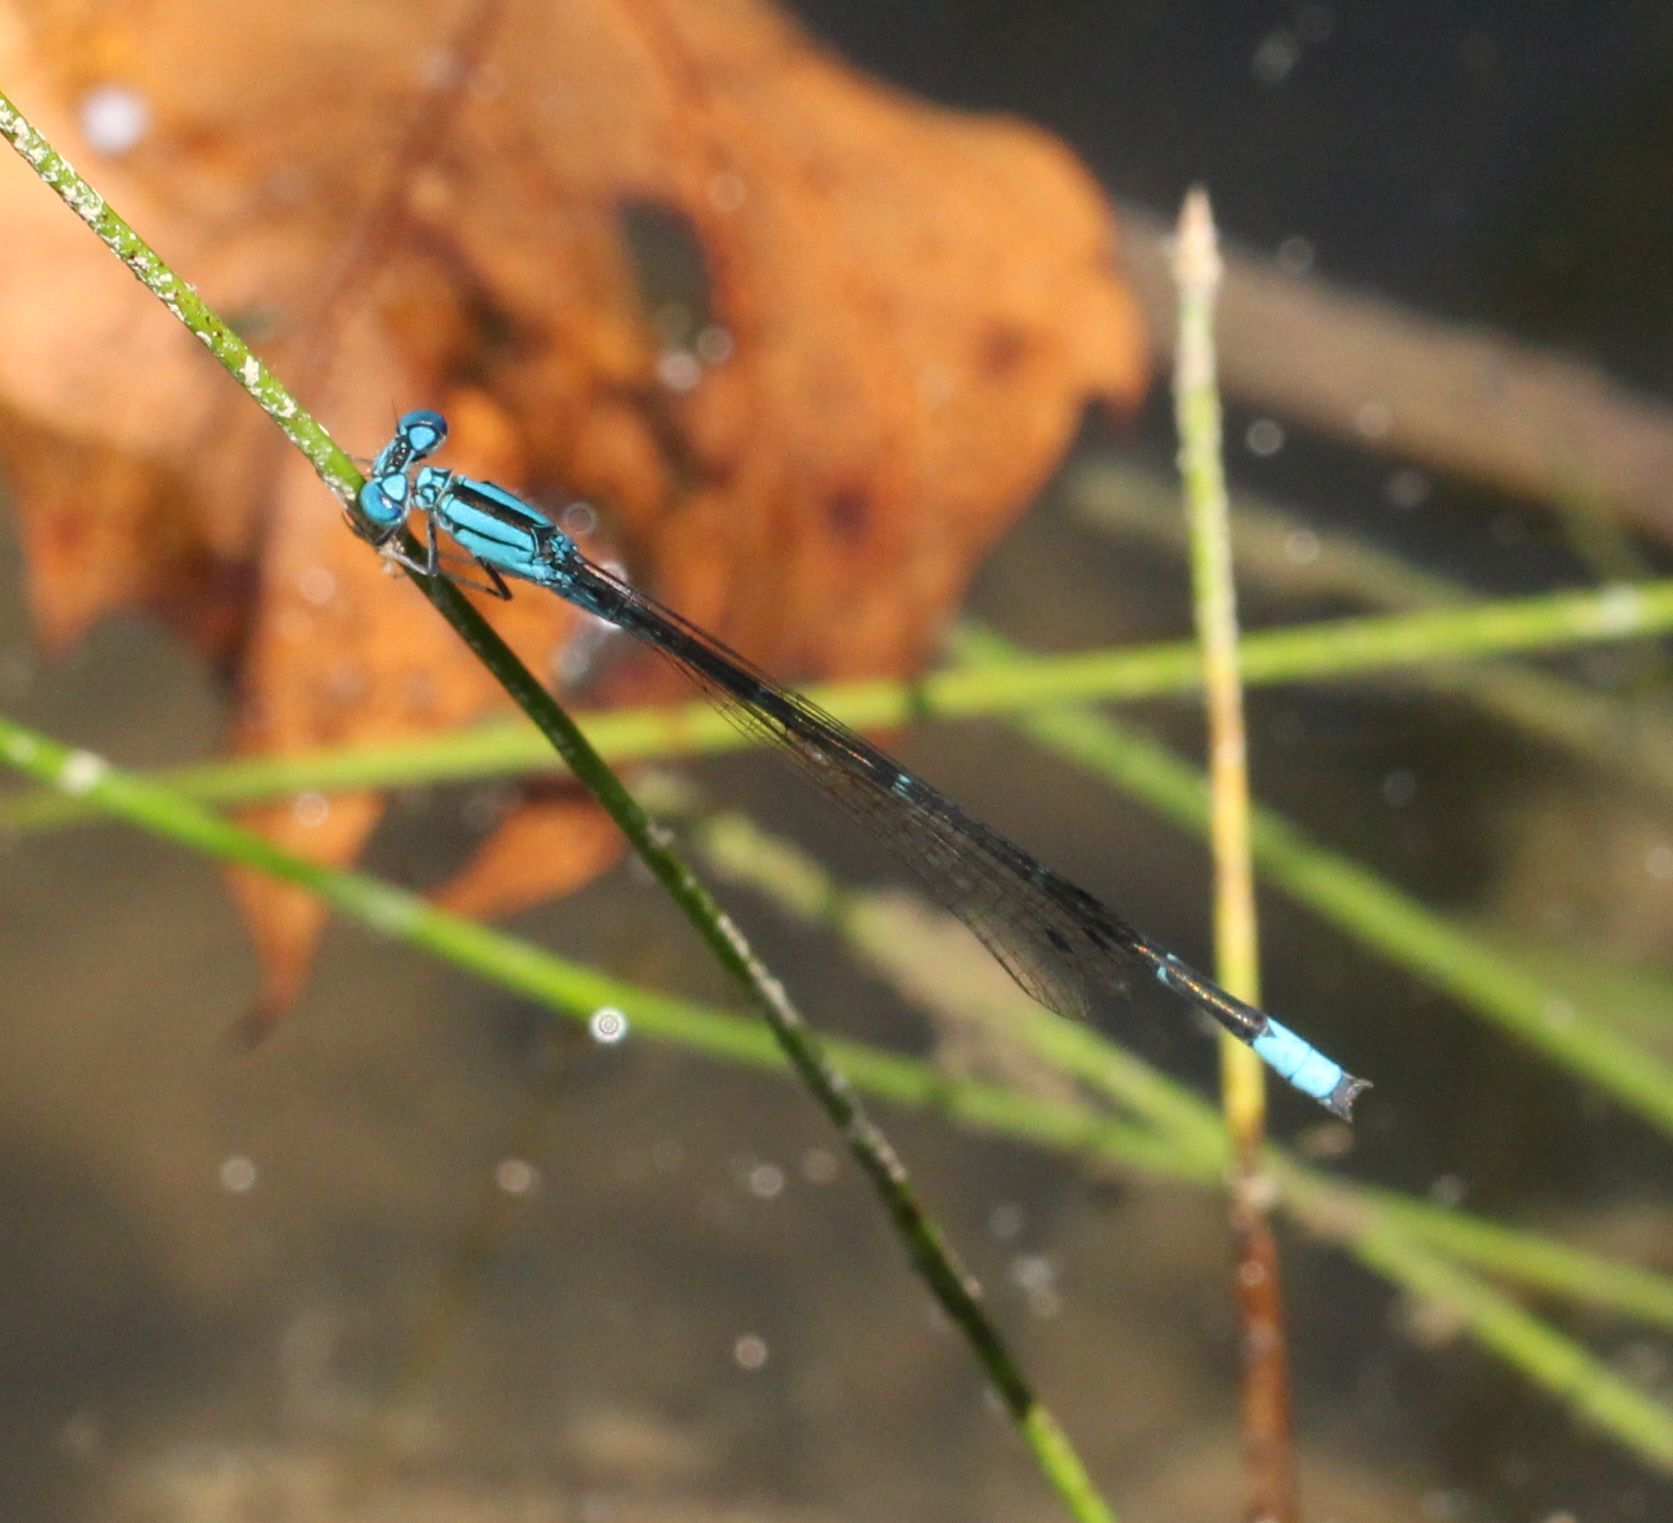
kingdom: Animalia
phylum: Arthropoda
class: Insecta
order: Odonata
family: Coenagrionidae
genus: Enallagma
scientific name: Enallagma traviatum
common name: Slender bluet
